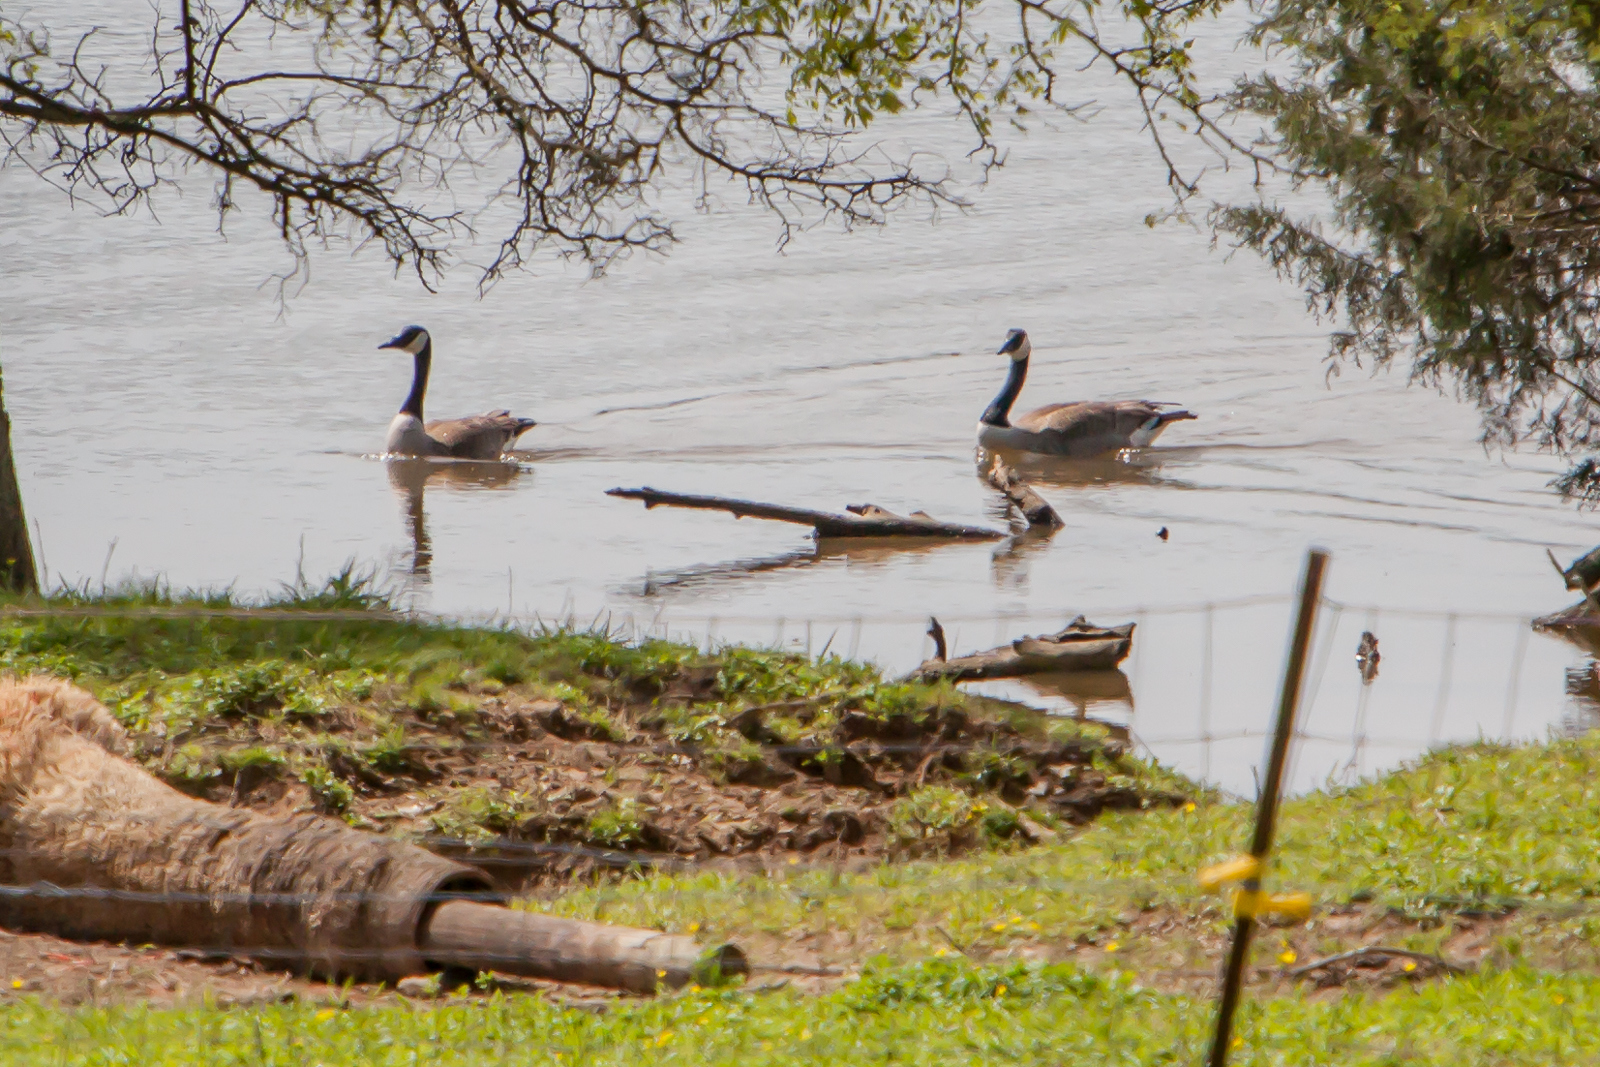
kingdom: Animalia
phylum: Chordata
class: Aves
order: Anseriformes
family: Anatidae
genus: Branta
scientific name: Branta canadensis
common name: Canada goose
